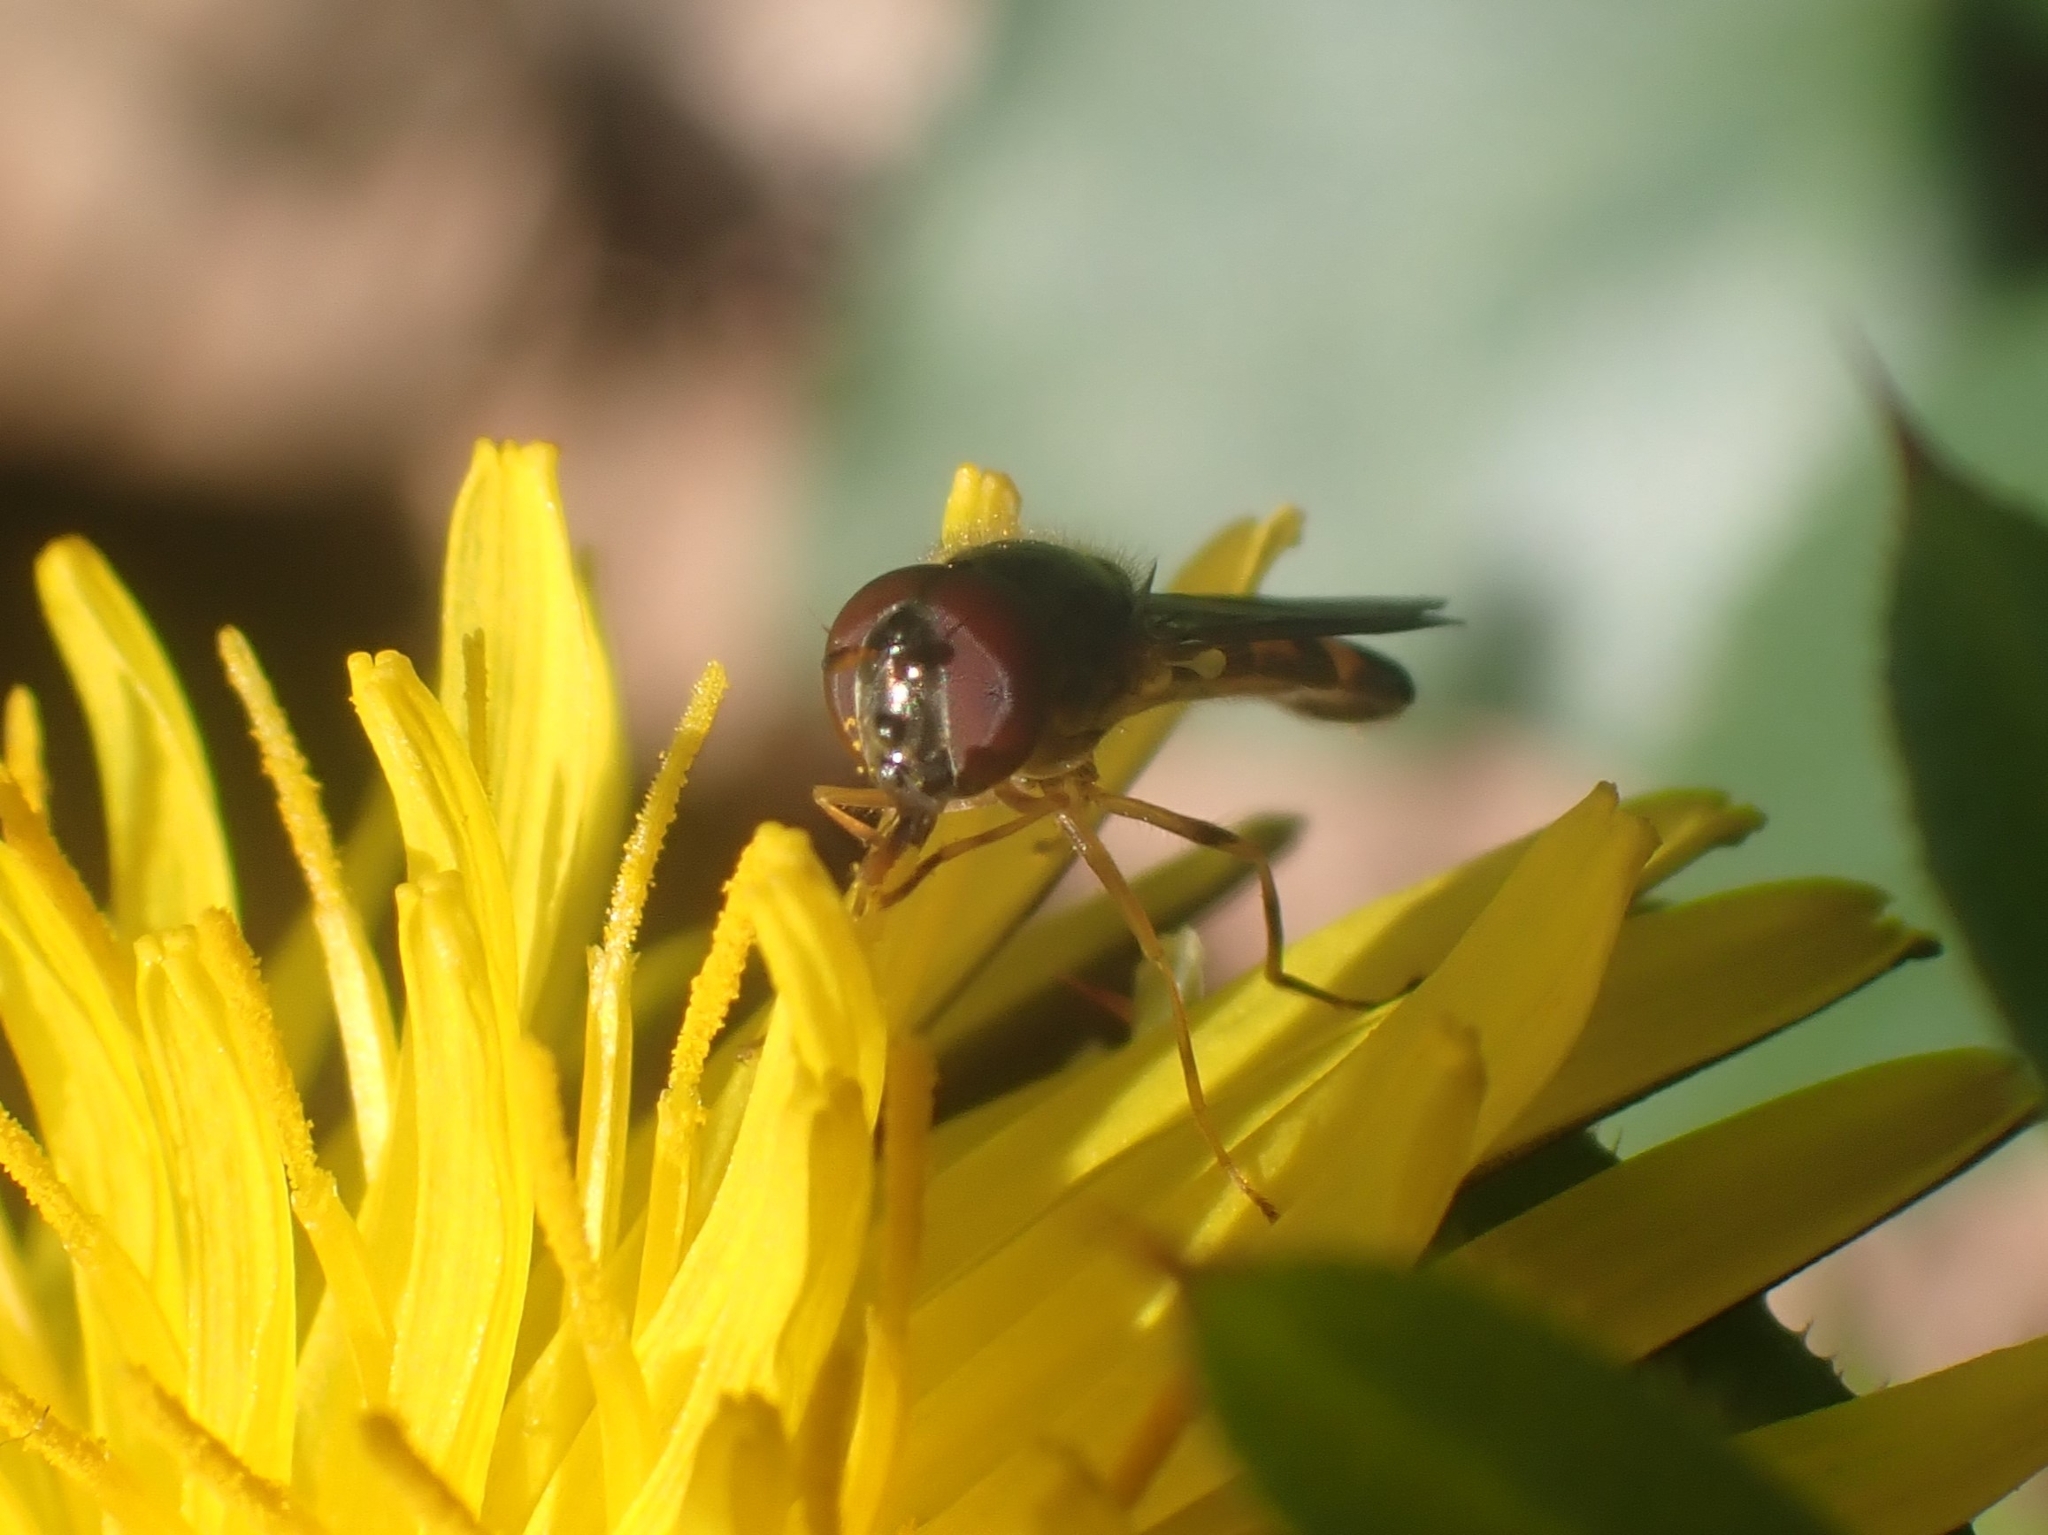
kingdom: Animalia
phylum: Arthropoda
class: Insecta
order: Diptera
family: Syrphidae
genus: Melanostoma
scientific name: Melanostoma scalare
